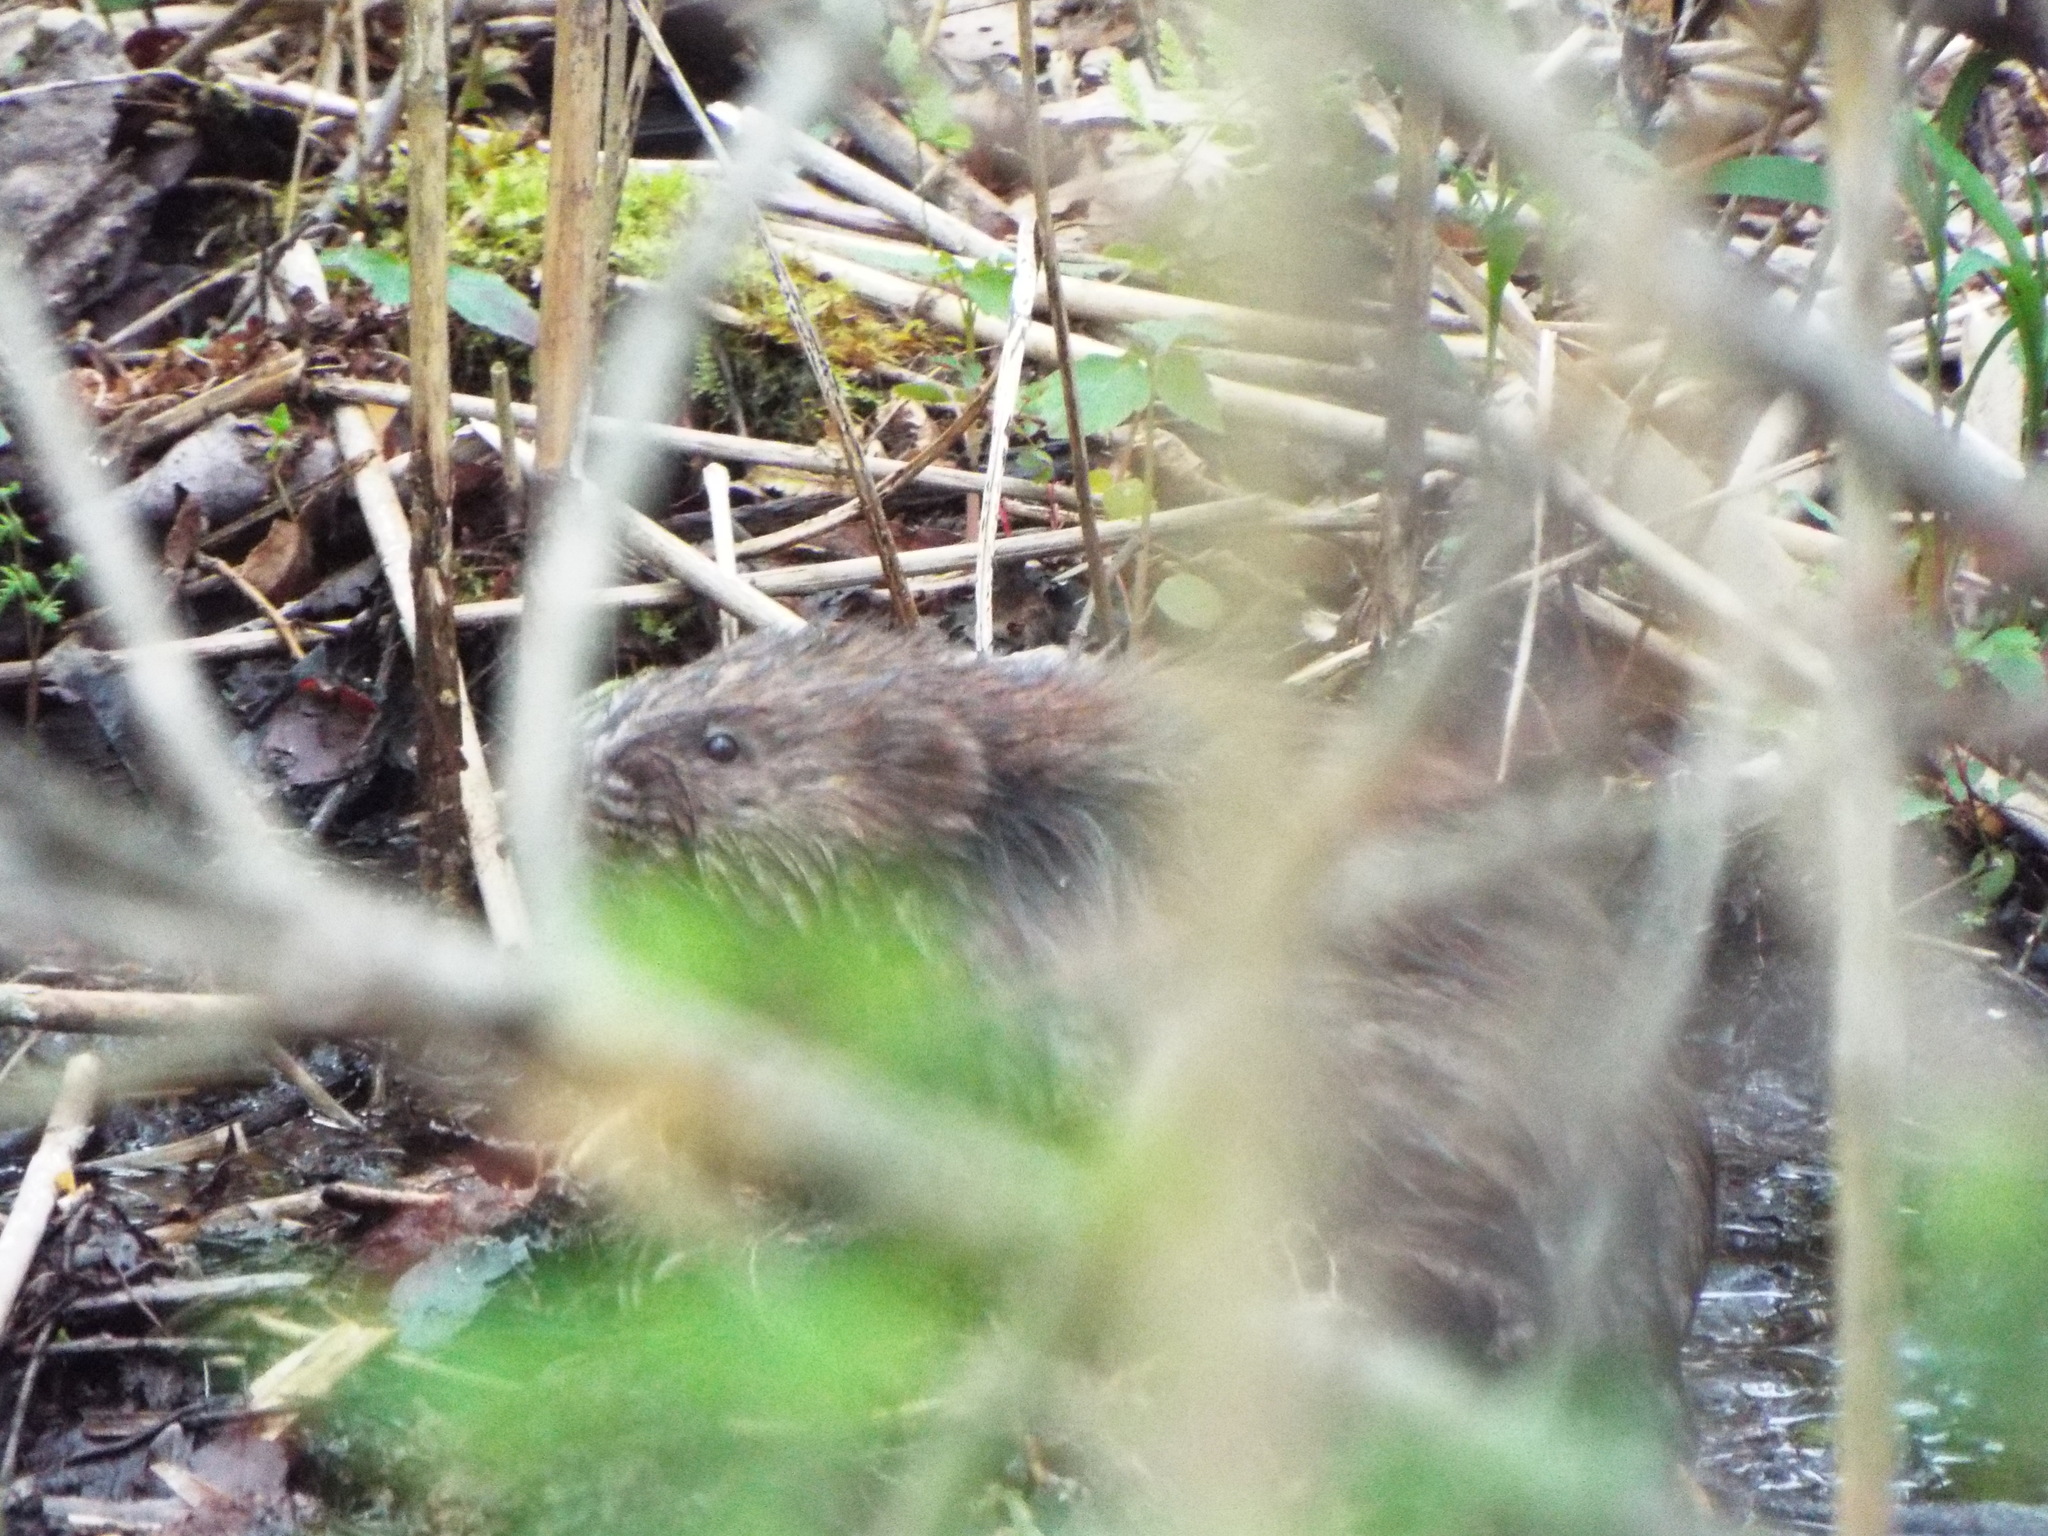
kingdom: Animalia
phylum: Chordata
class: Mammalia
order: Rodentia
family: Cricetidae
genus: Ondatra
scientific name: Ondatra zibethicus
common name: Muskrat
